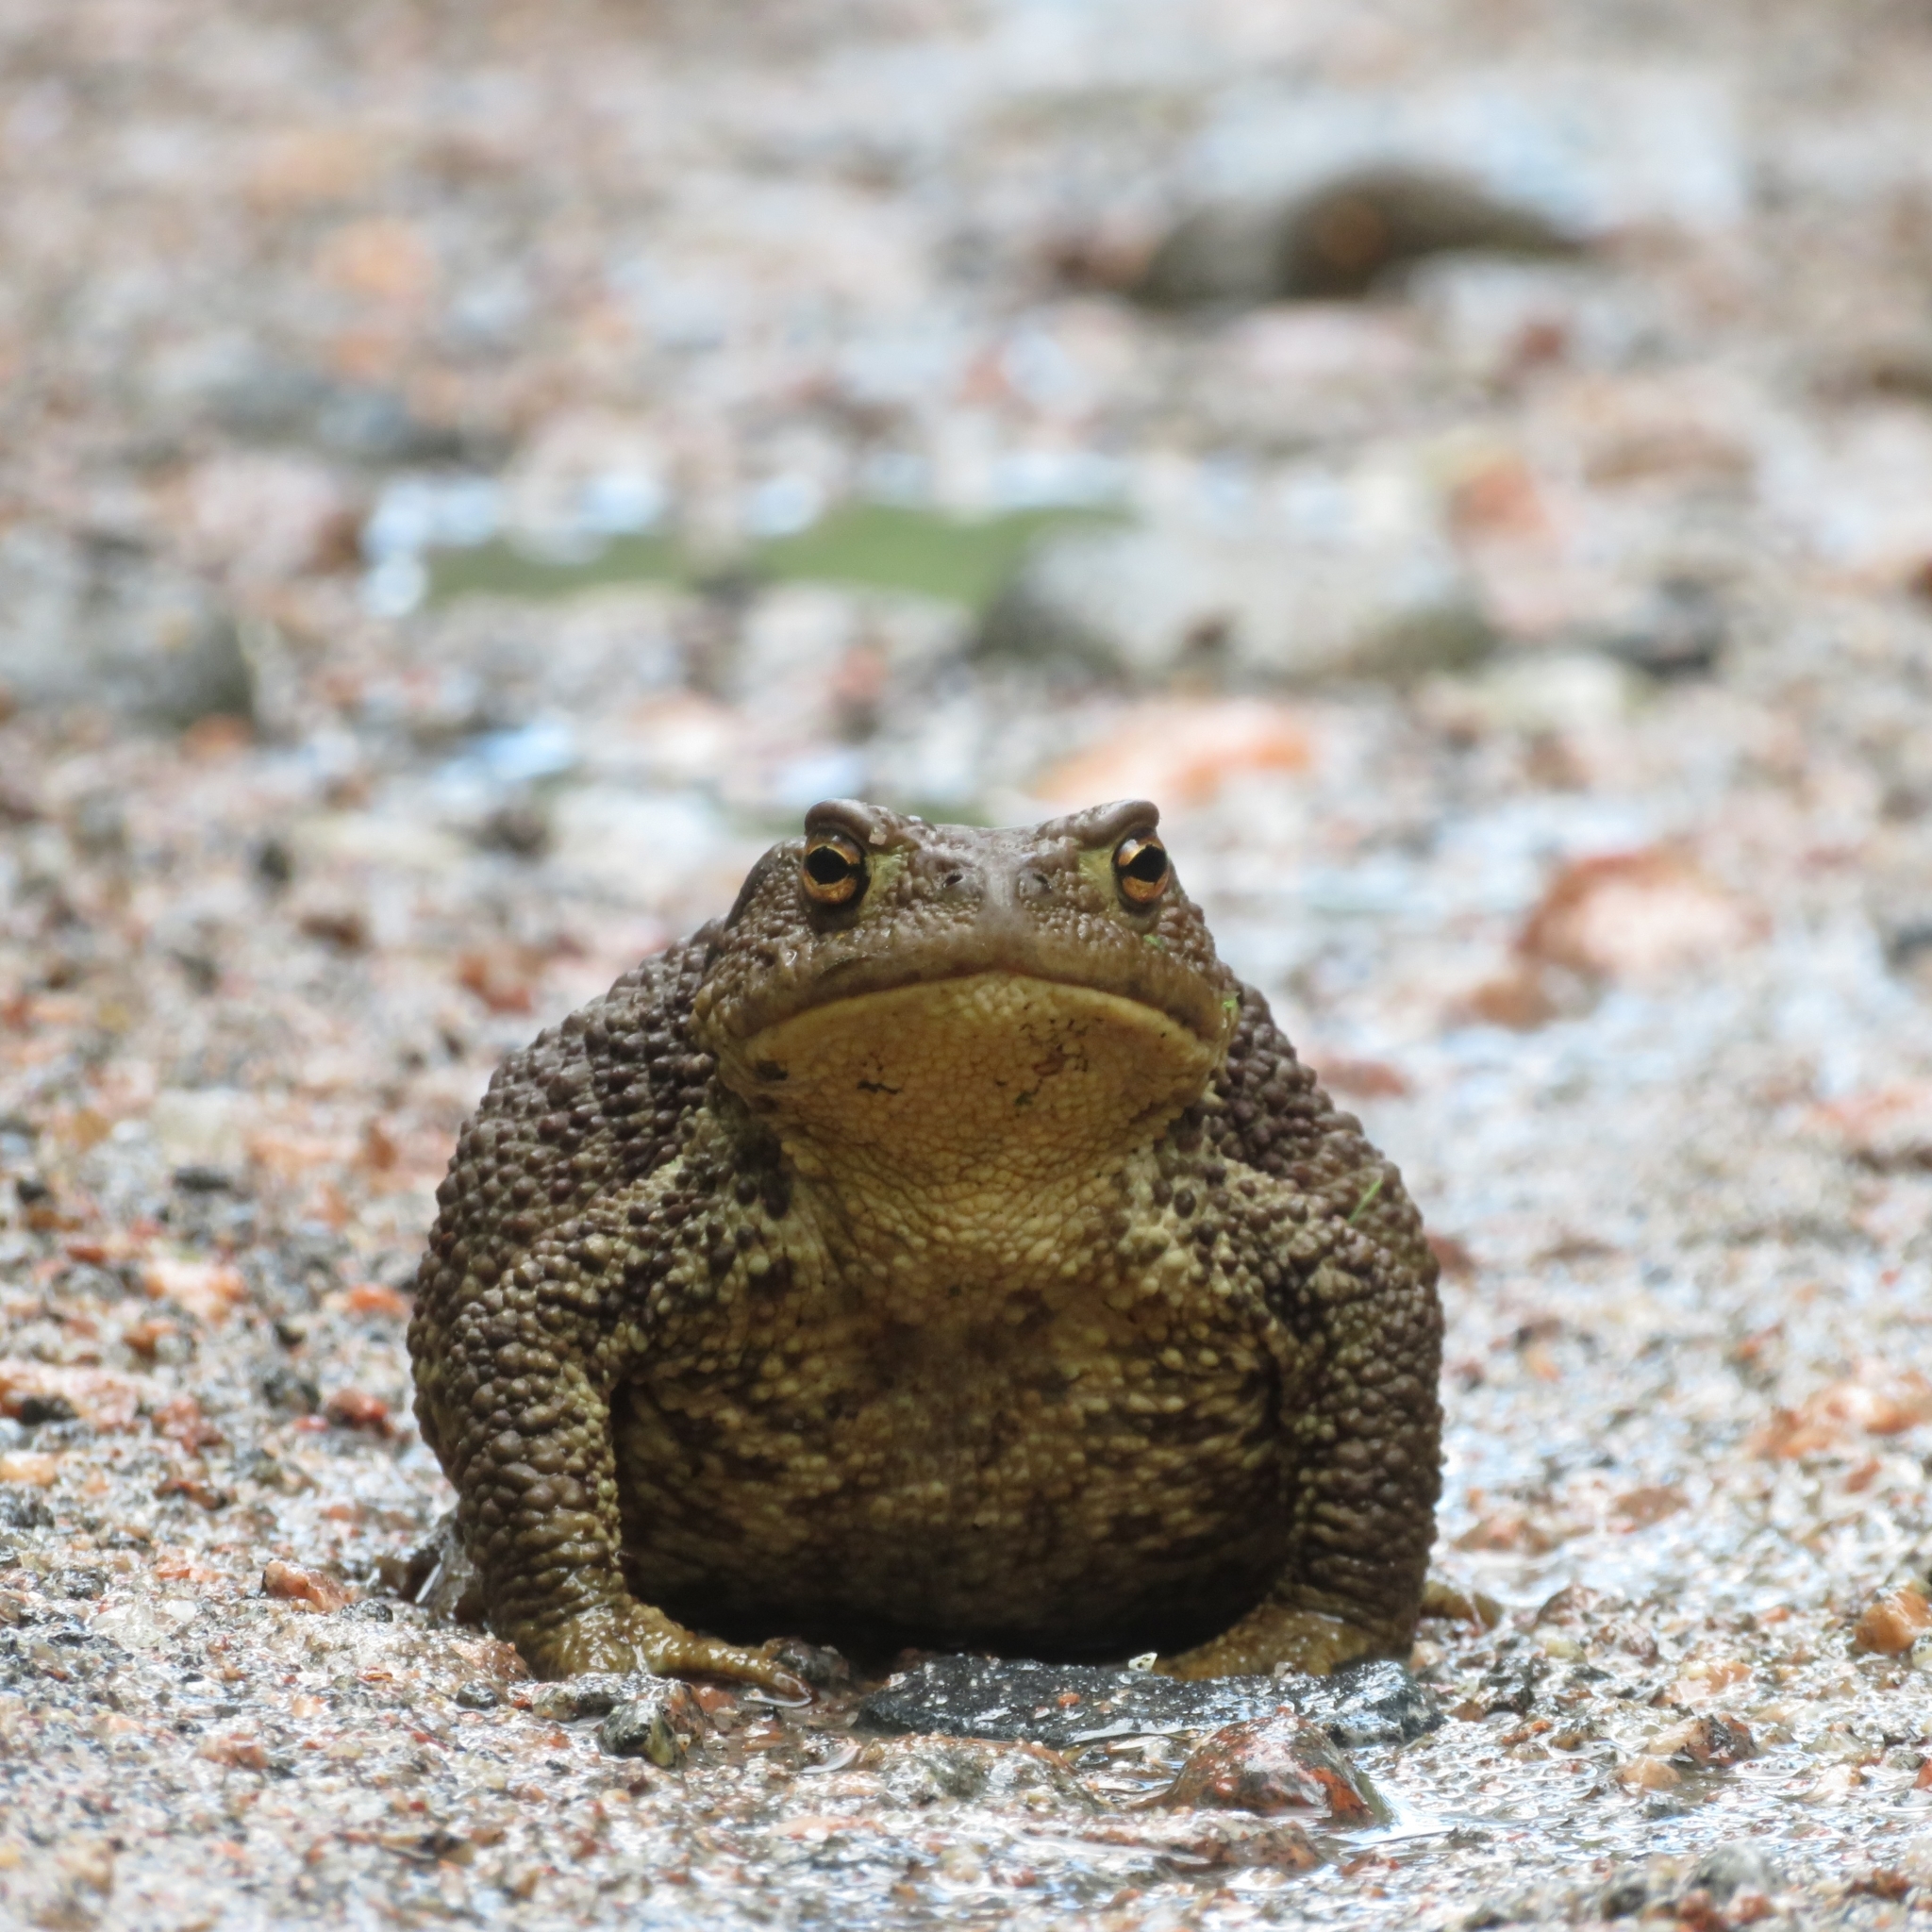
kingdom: Animalia
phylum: Chordata
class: Amphibia
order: Anura
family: Bufonidae
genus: Bufo
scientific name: Bufo bufo
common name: Common toad
